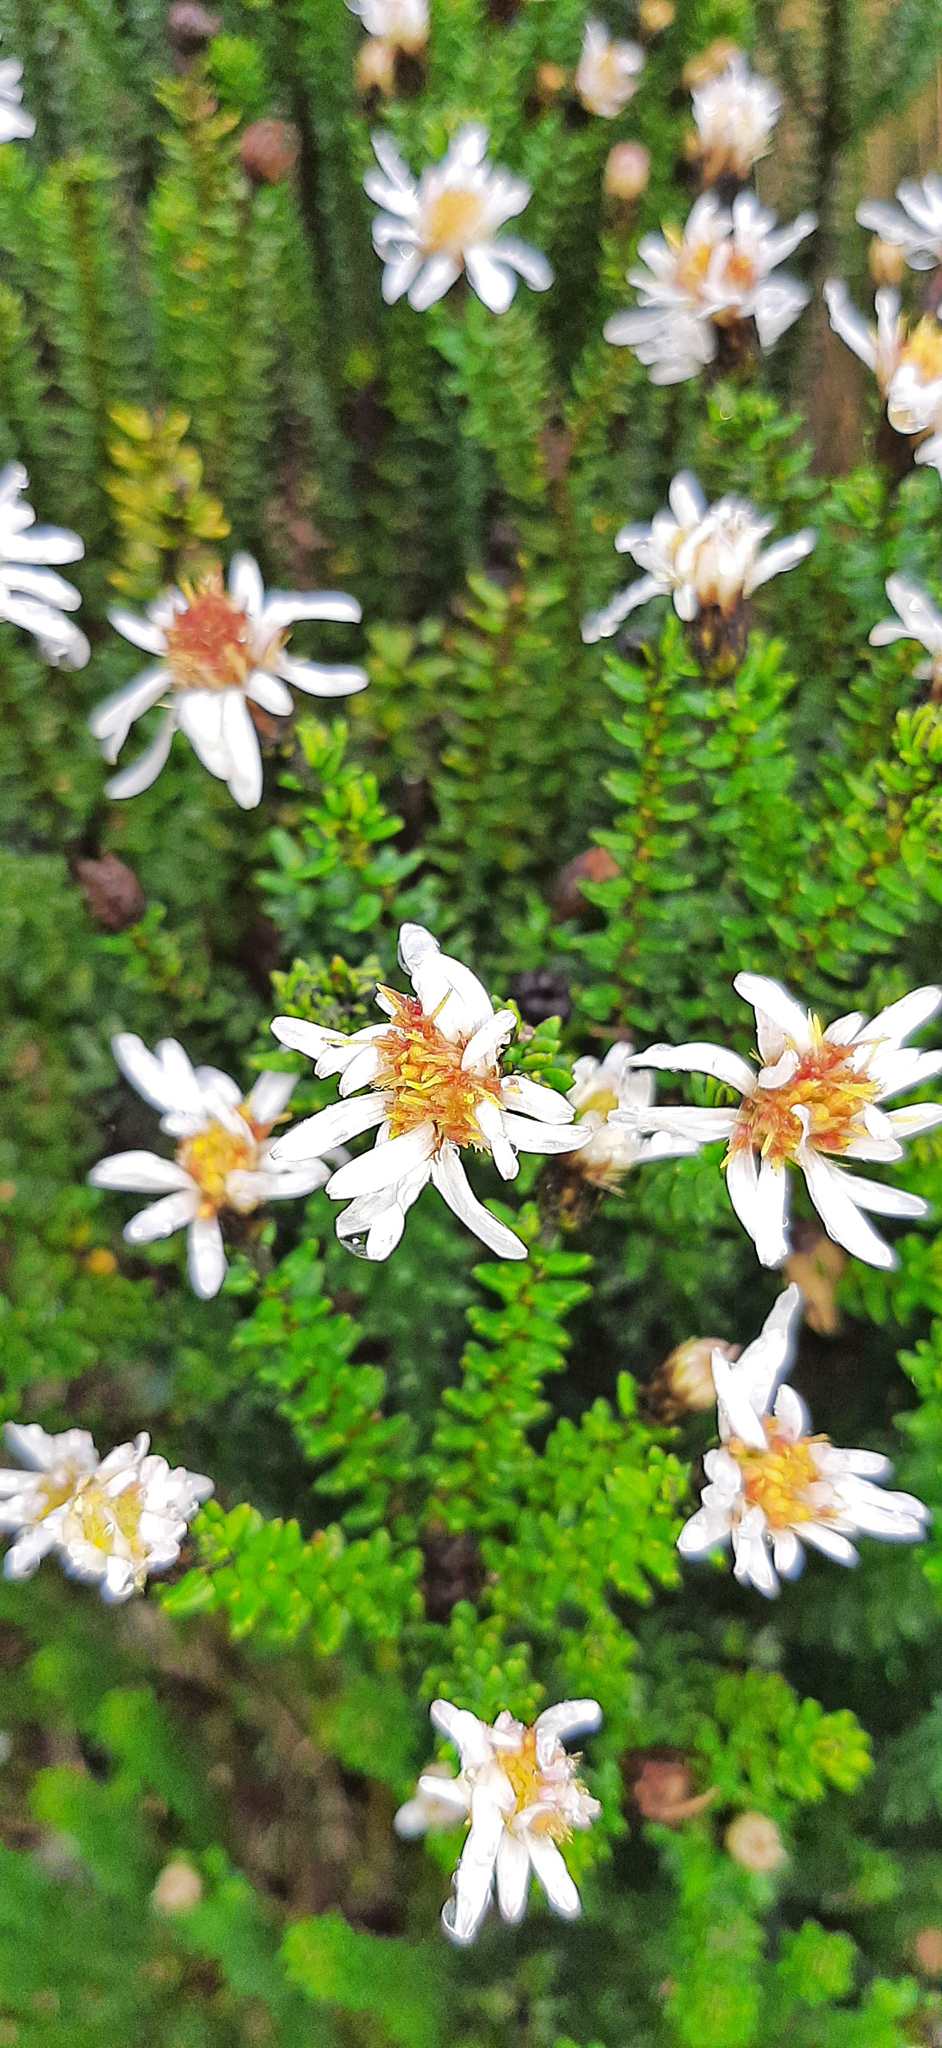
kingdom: Plantae
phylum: Tracheophyta
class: Magnoliopsida
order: Asterales
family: Asteraceae
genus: Diplostephium
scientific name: Diplostephium spinulosum
